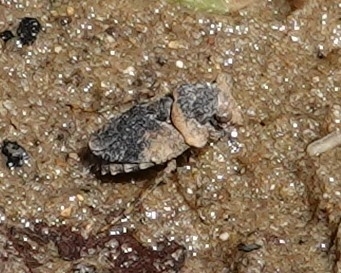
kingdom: Animalia
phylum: Arthropoda
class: Insecta
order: Hemiptera
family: Gelastocoridae
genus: Gelastocoris
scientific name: Gelastocoris oculatus
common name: Toad bug
